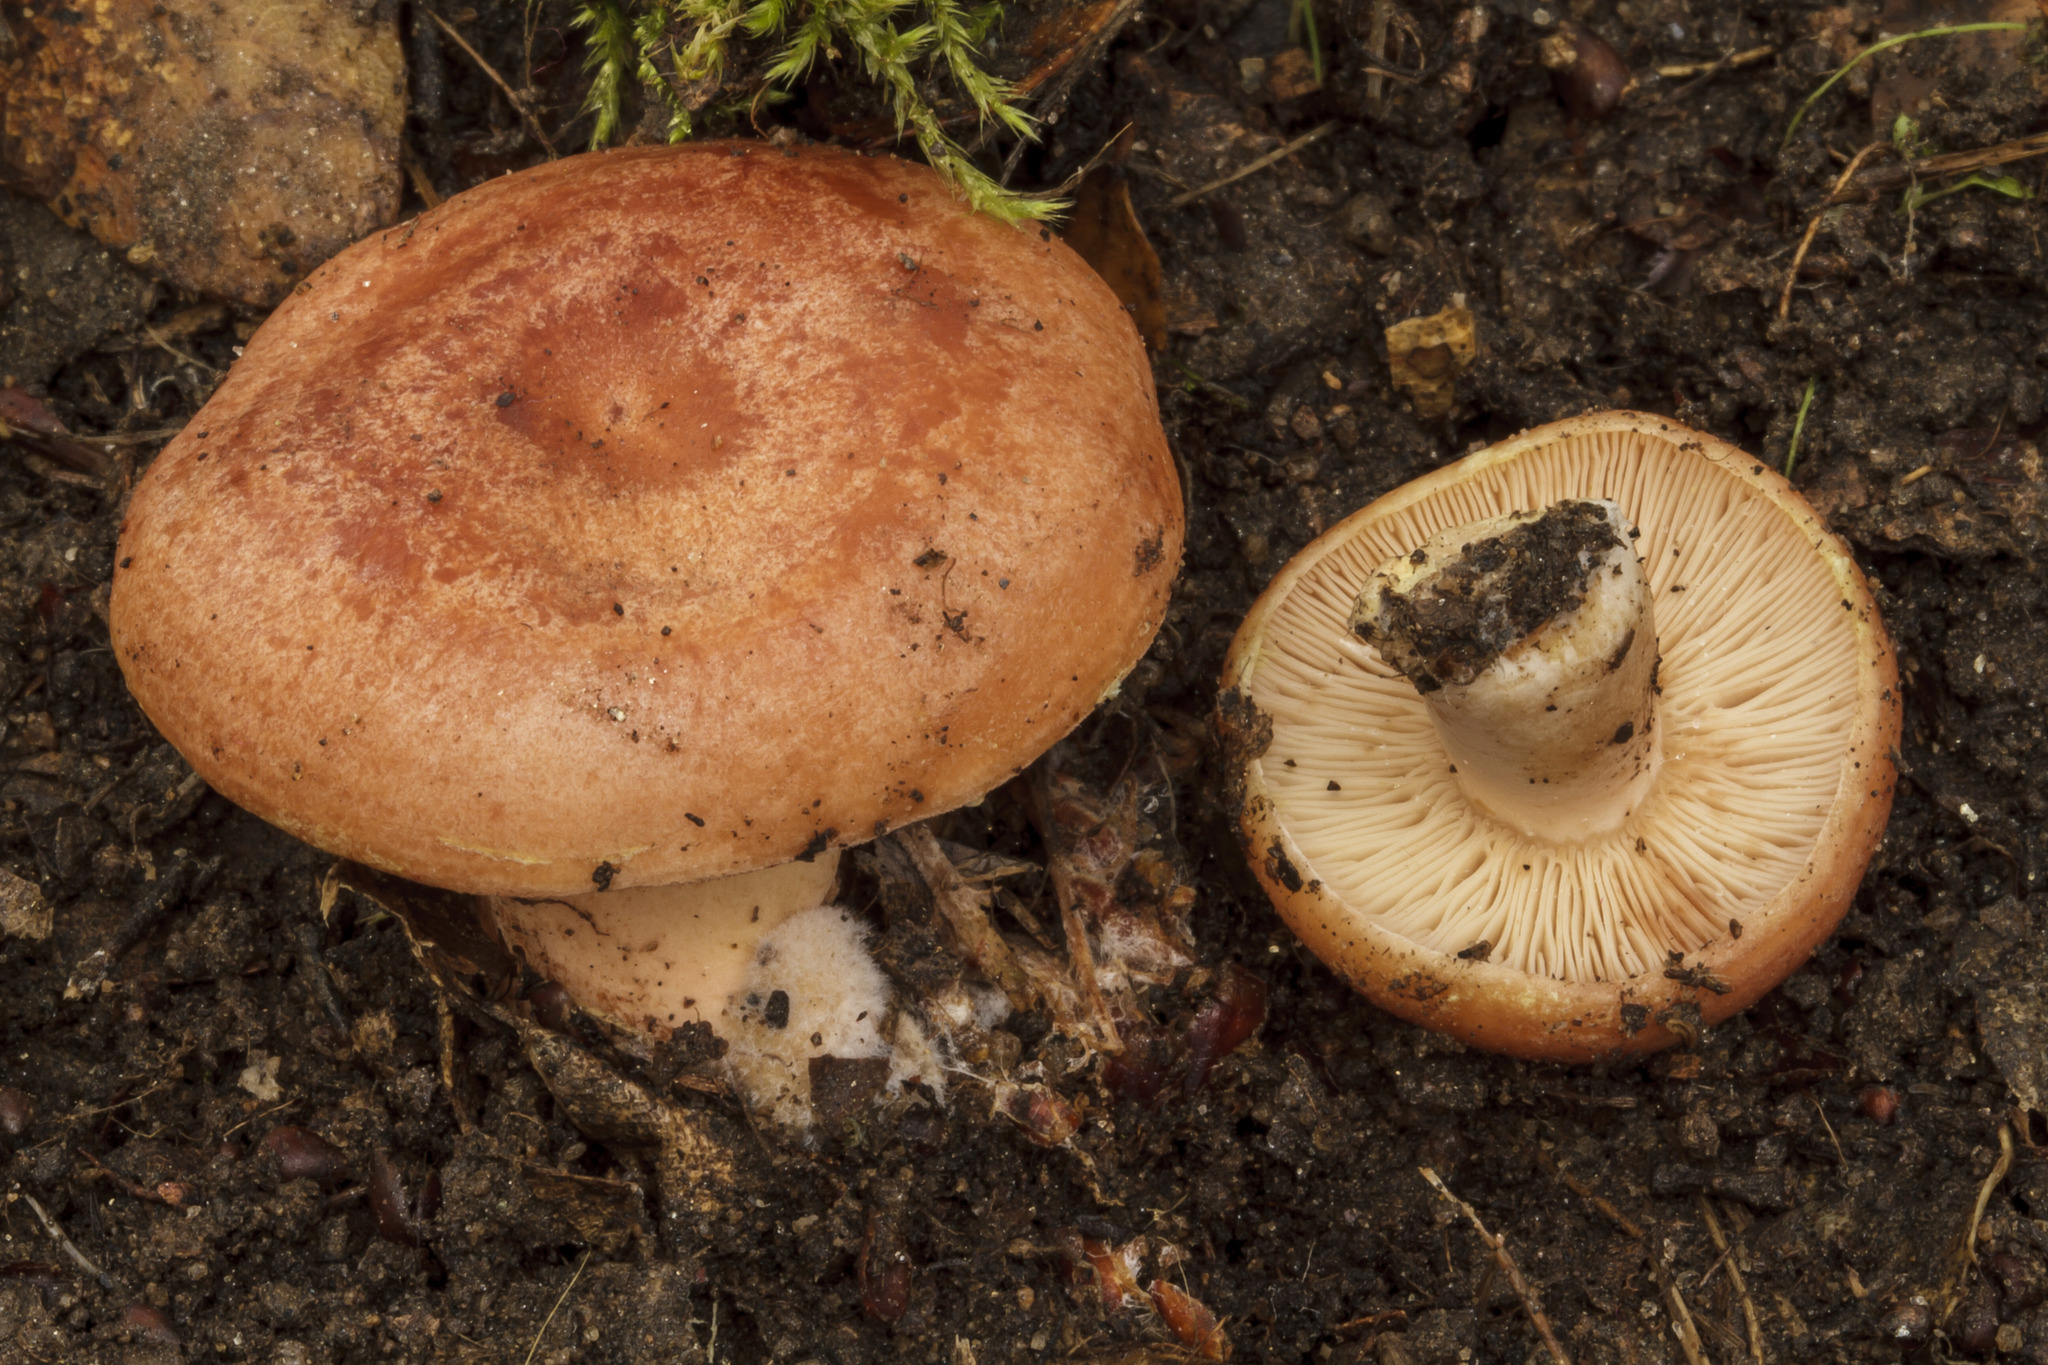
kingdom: Fungi
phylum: Basidiomycota
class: Agaricomycetes
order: Russulales
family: Russulaceae
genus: Lactarius
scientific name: Lactarius xanthogalactus
